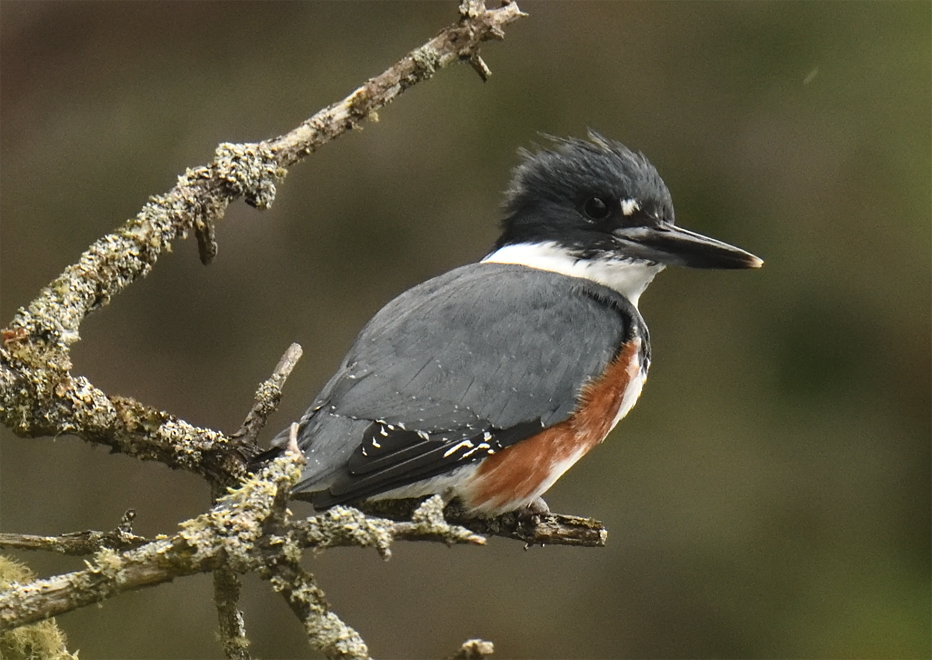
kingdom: Animalia
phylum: Chordata
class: Aves
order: Coraciiformes
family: Alcedinidae
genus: Megaceryle
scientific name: Megaceryle alcyon
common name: Belted kingfisher
